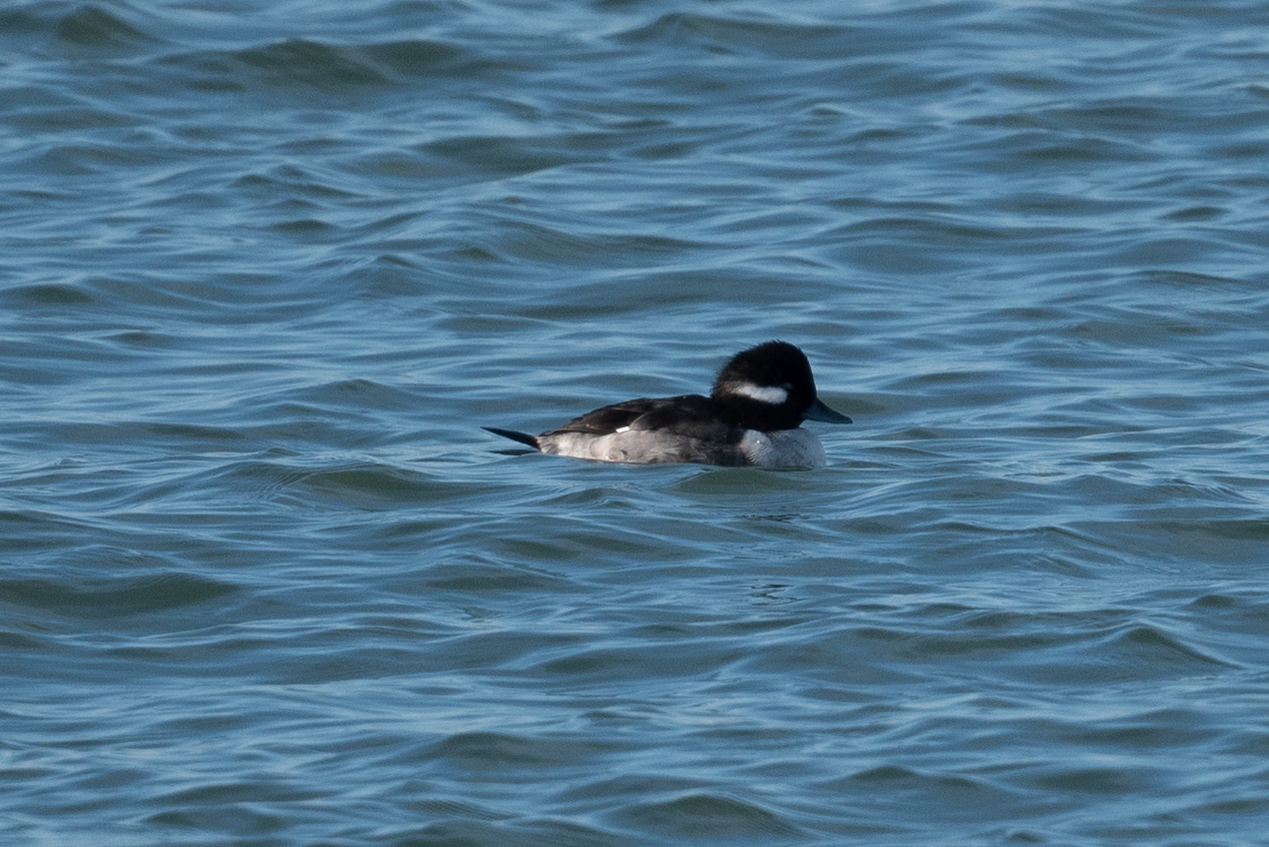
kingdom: Animalia
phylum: Chordata
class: Aves
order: Anseriformes
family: Anatidae
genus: Bucephala
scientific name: Bucephala albeola
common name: Bufflehead
